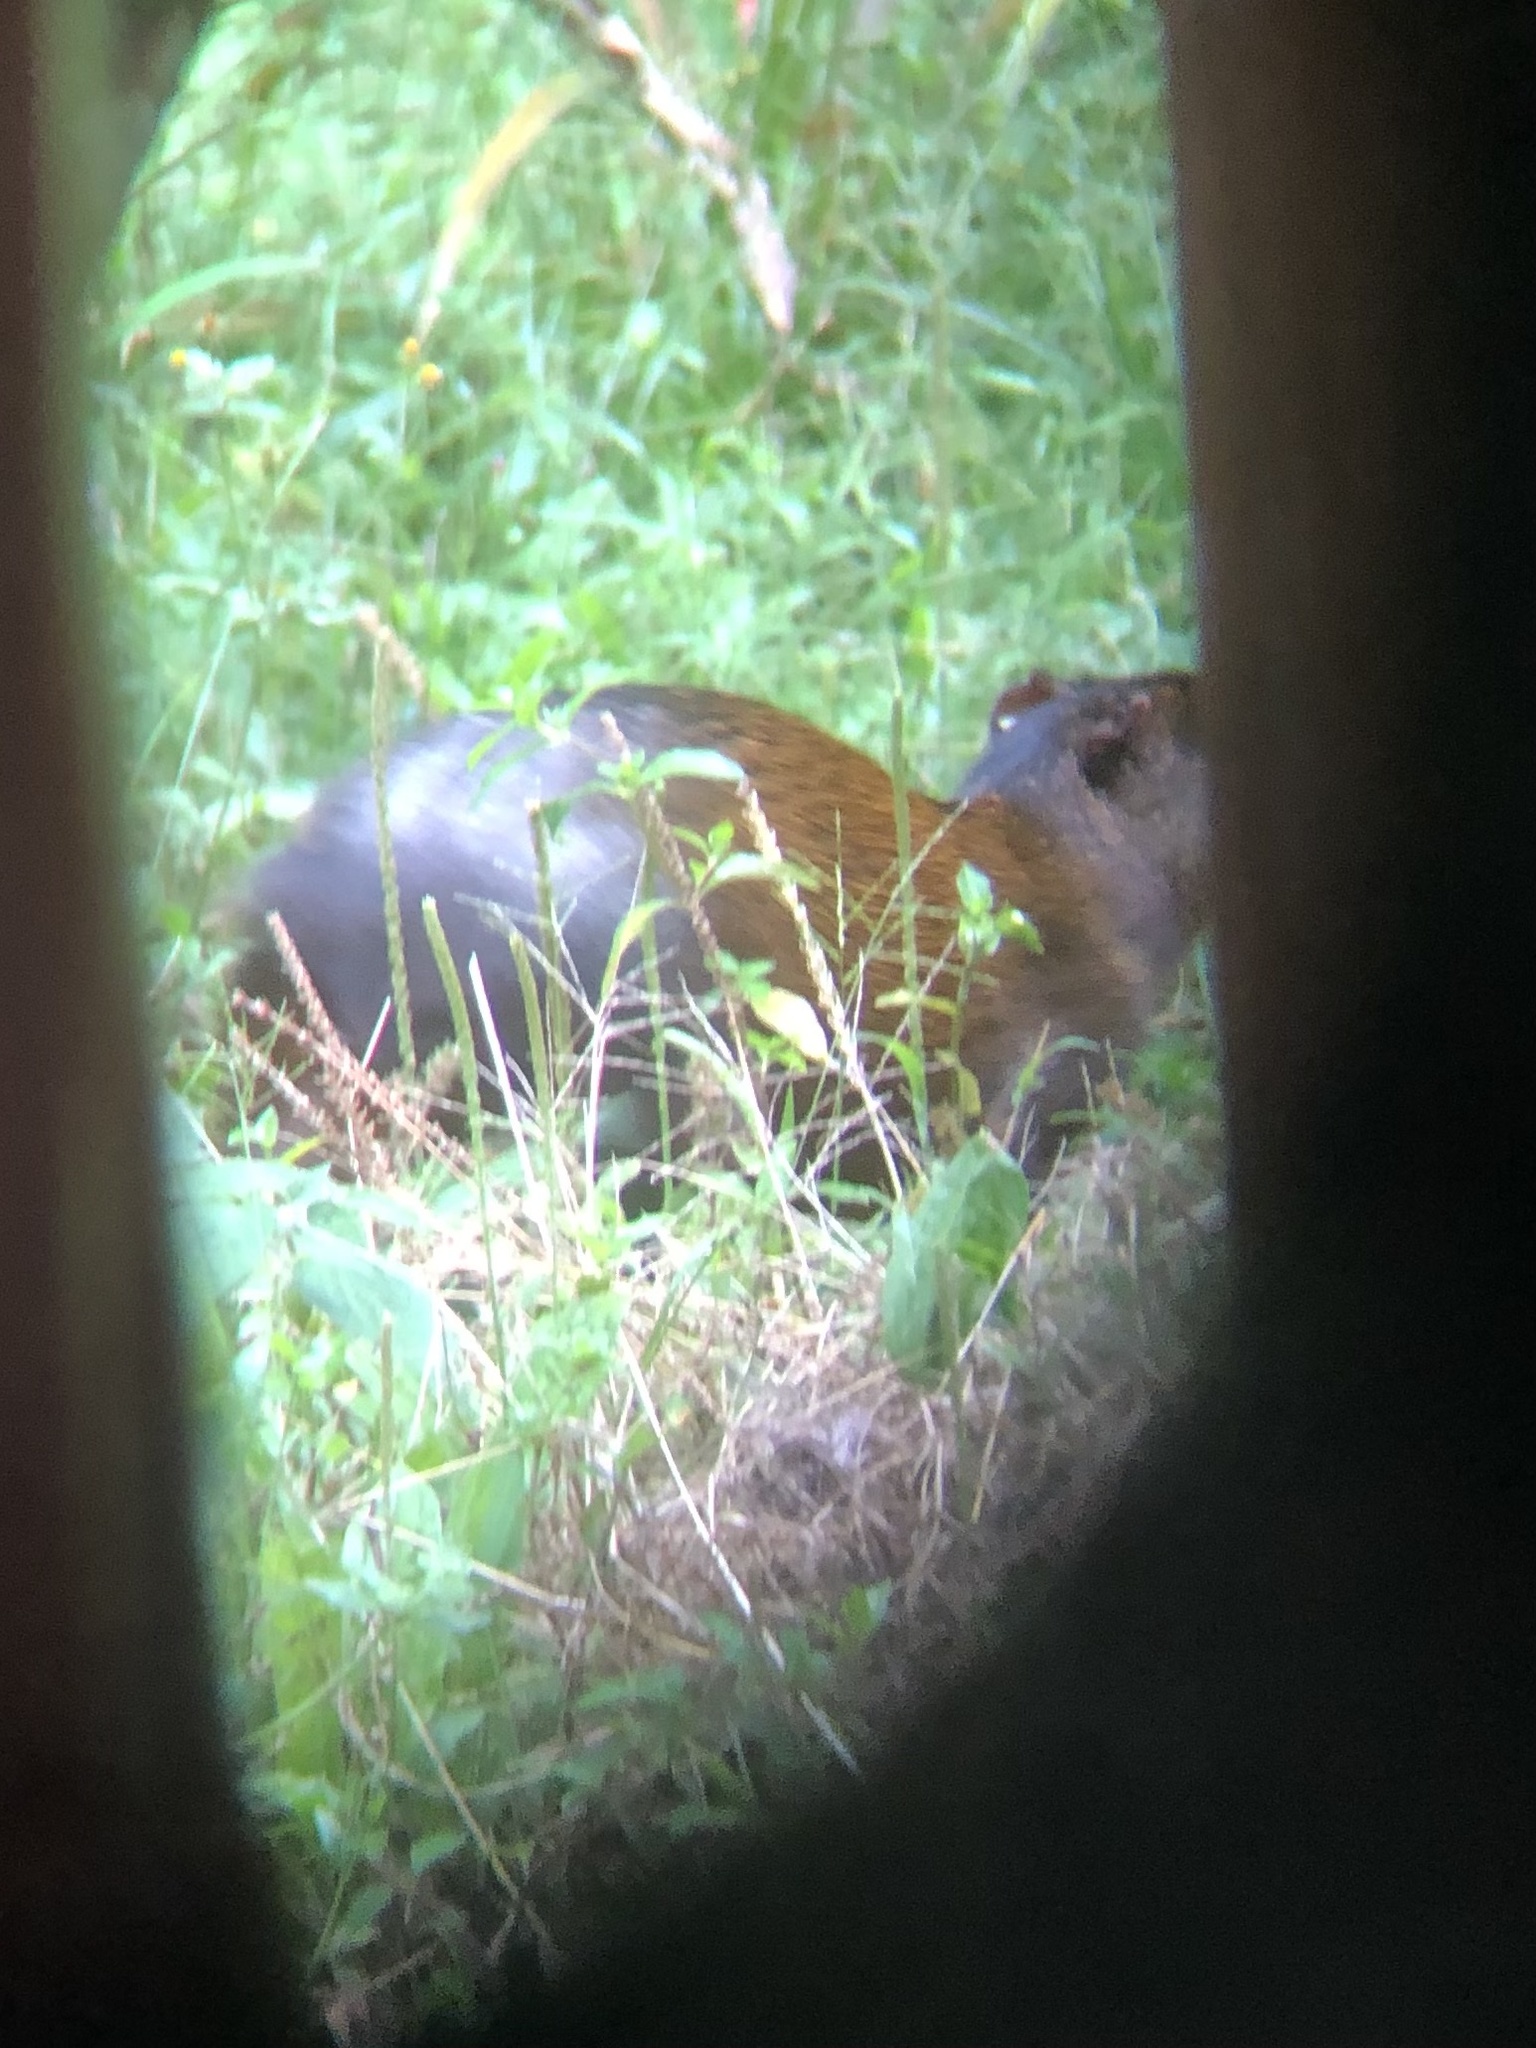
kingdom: Animalia
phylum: Chordata
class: Mammalia
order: Rodentia
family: Dasyproctidae
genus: Dasyprocta
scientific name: Dasyprocta variegata
